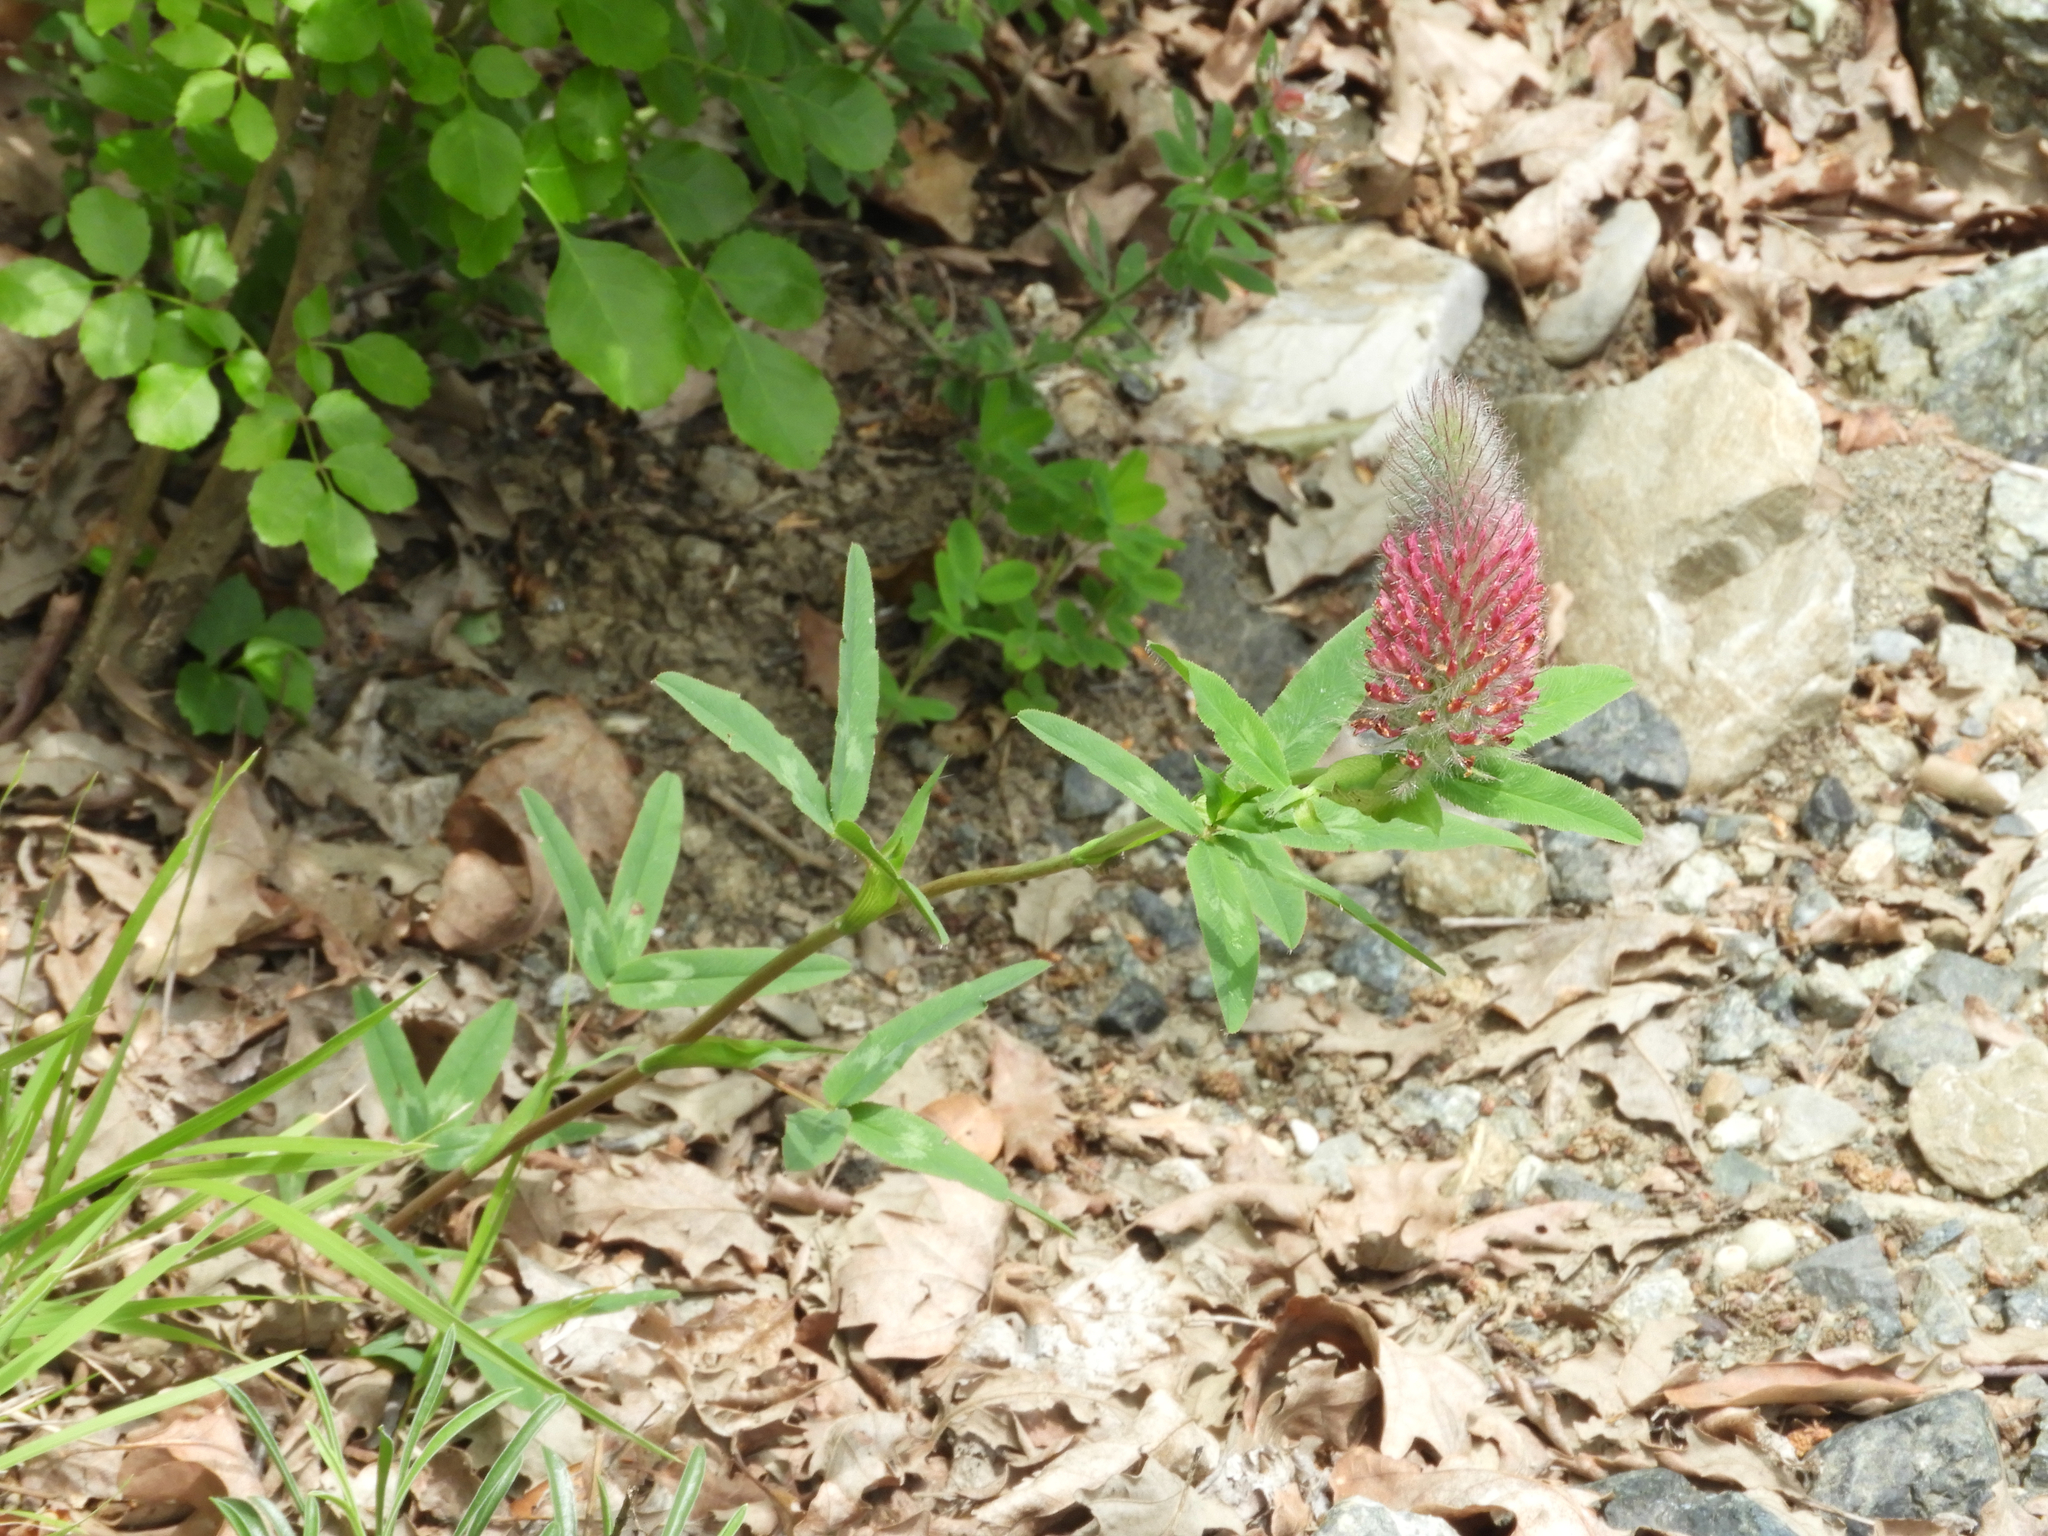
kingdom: Plantae
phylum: Tracheophyta
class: Magnoliopsida
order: Fabales
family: Fabaceae
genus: Trifolium
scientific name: Trifolium rubens
